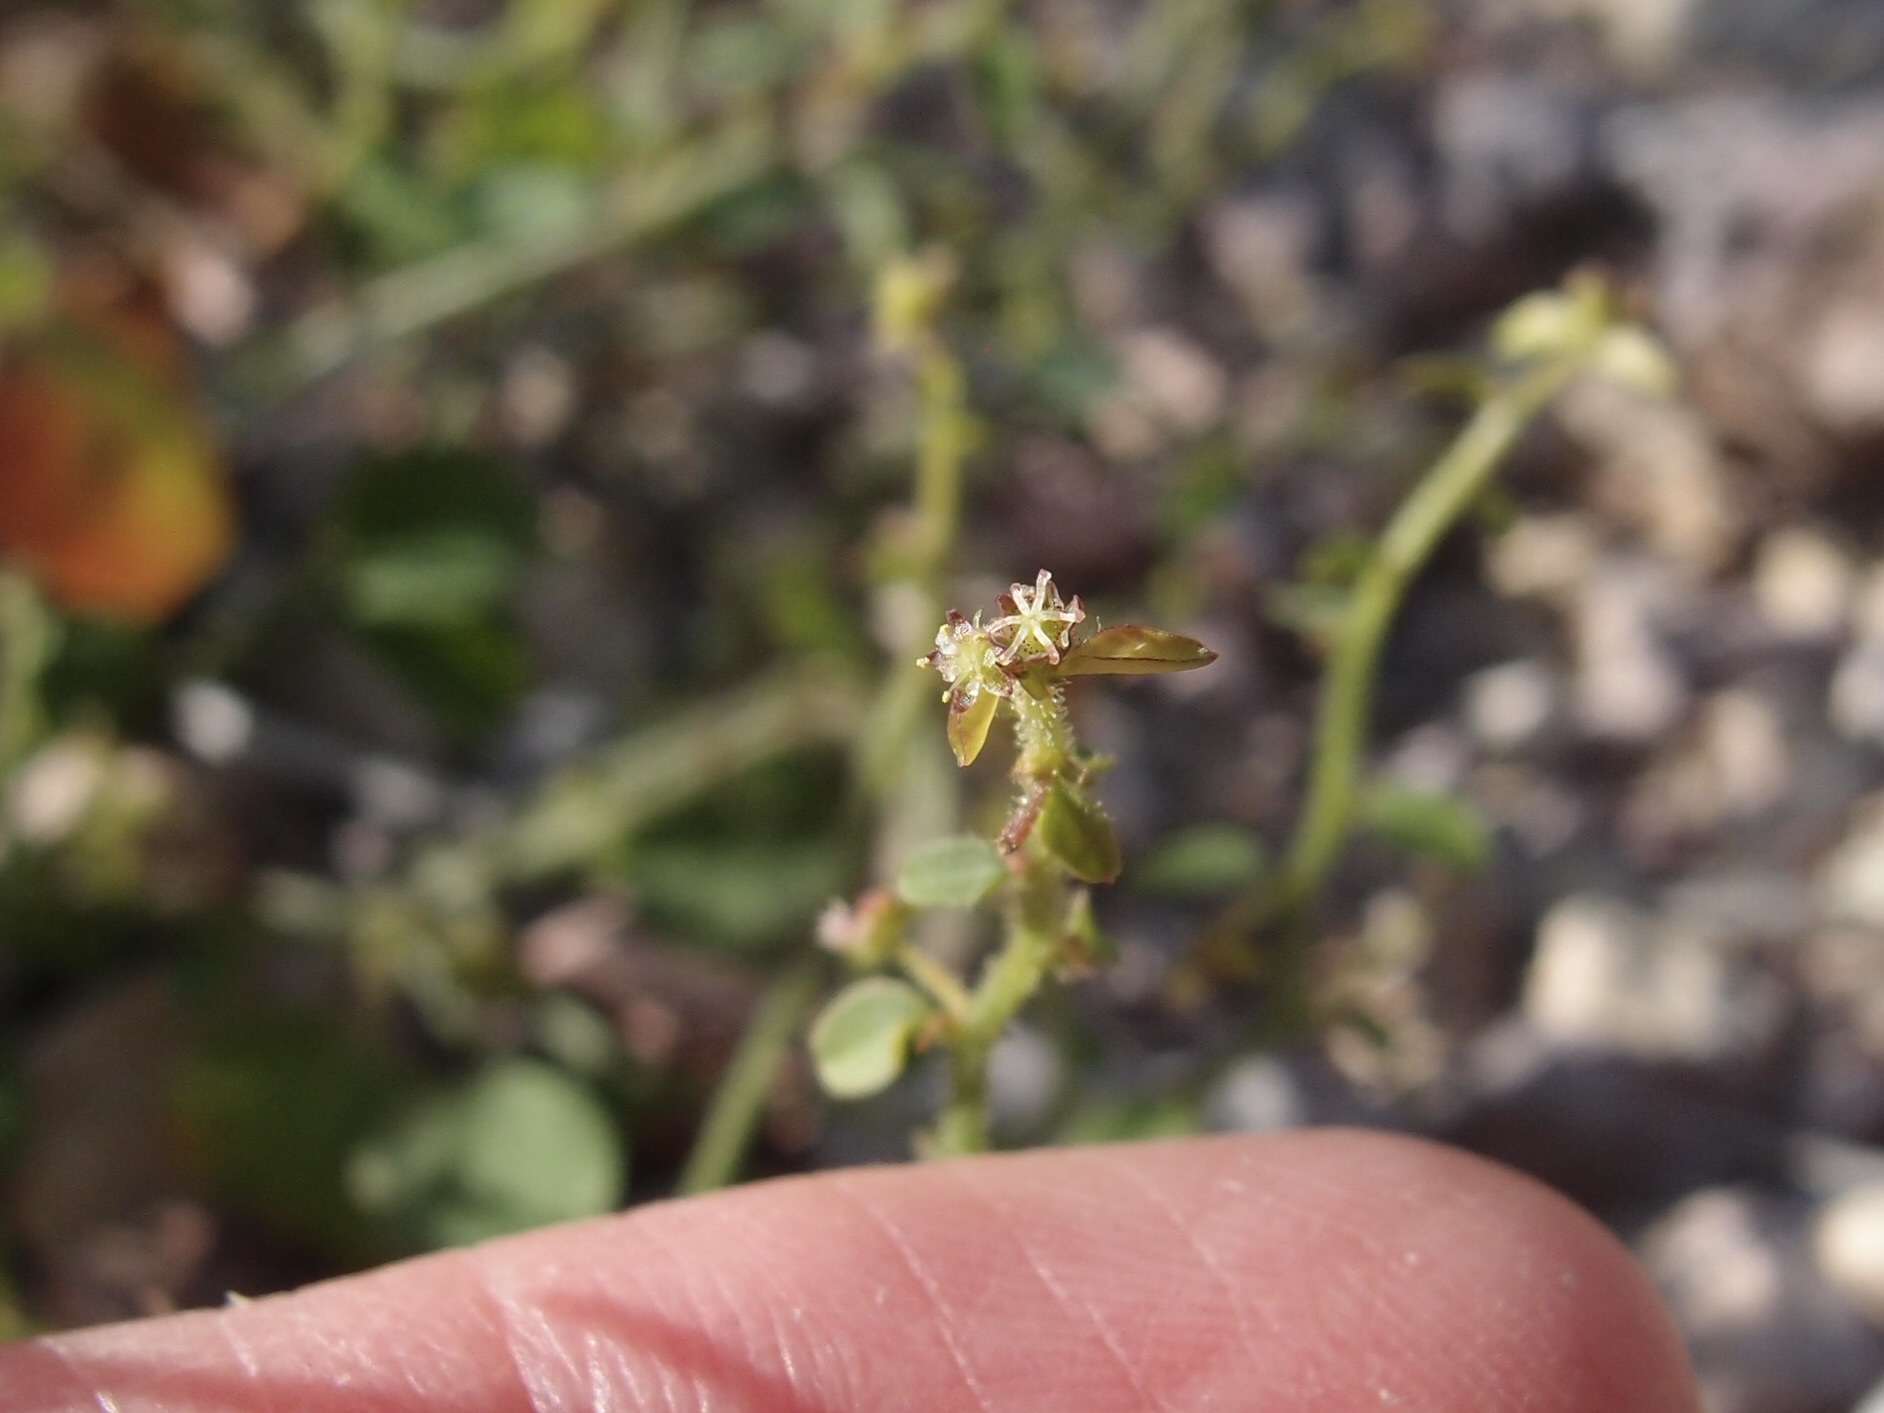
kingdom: Plantae
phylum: Tracheophyta
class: Magnoliopsida
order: Malpighiales
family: Phyllanthaceae
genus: Andrachne
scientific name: Andrachne microphylla
